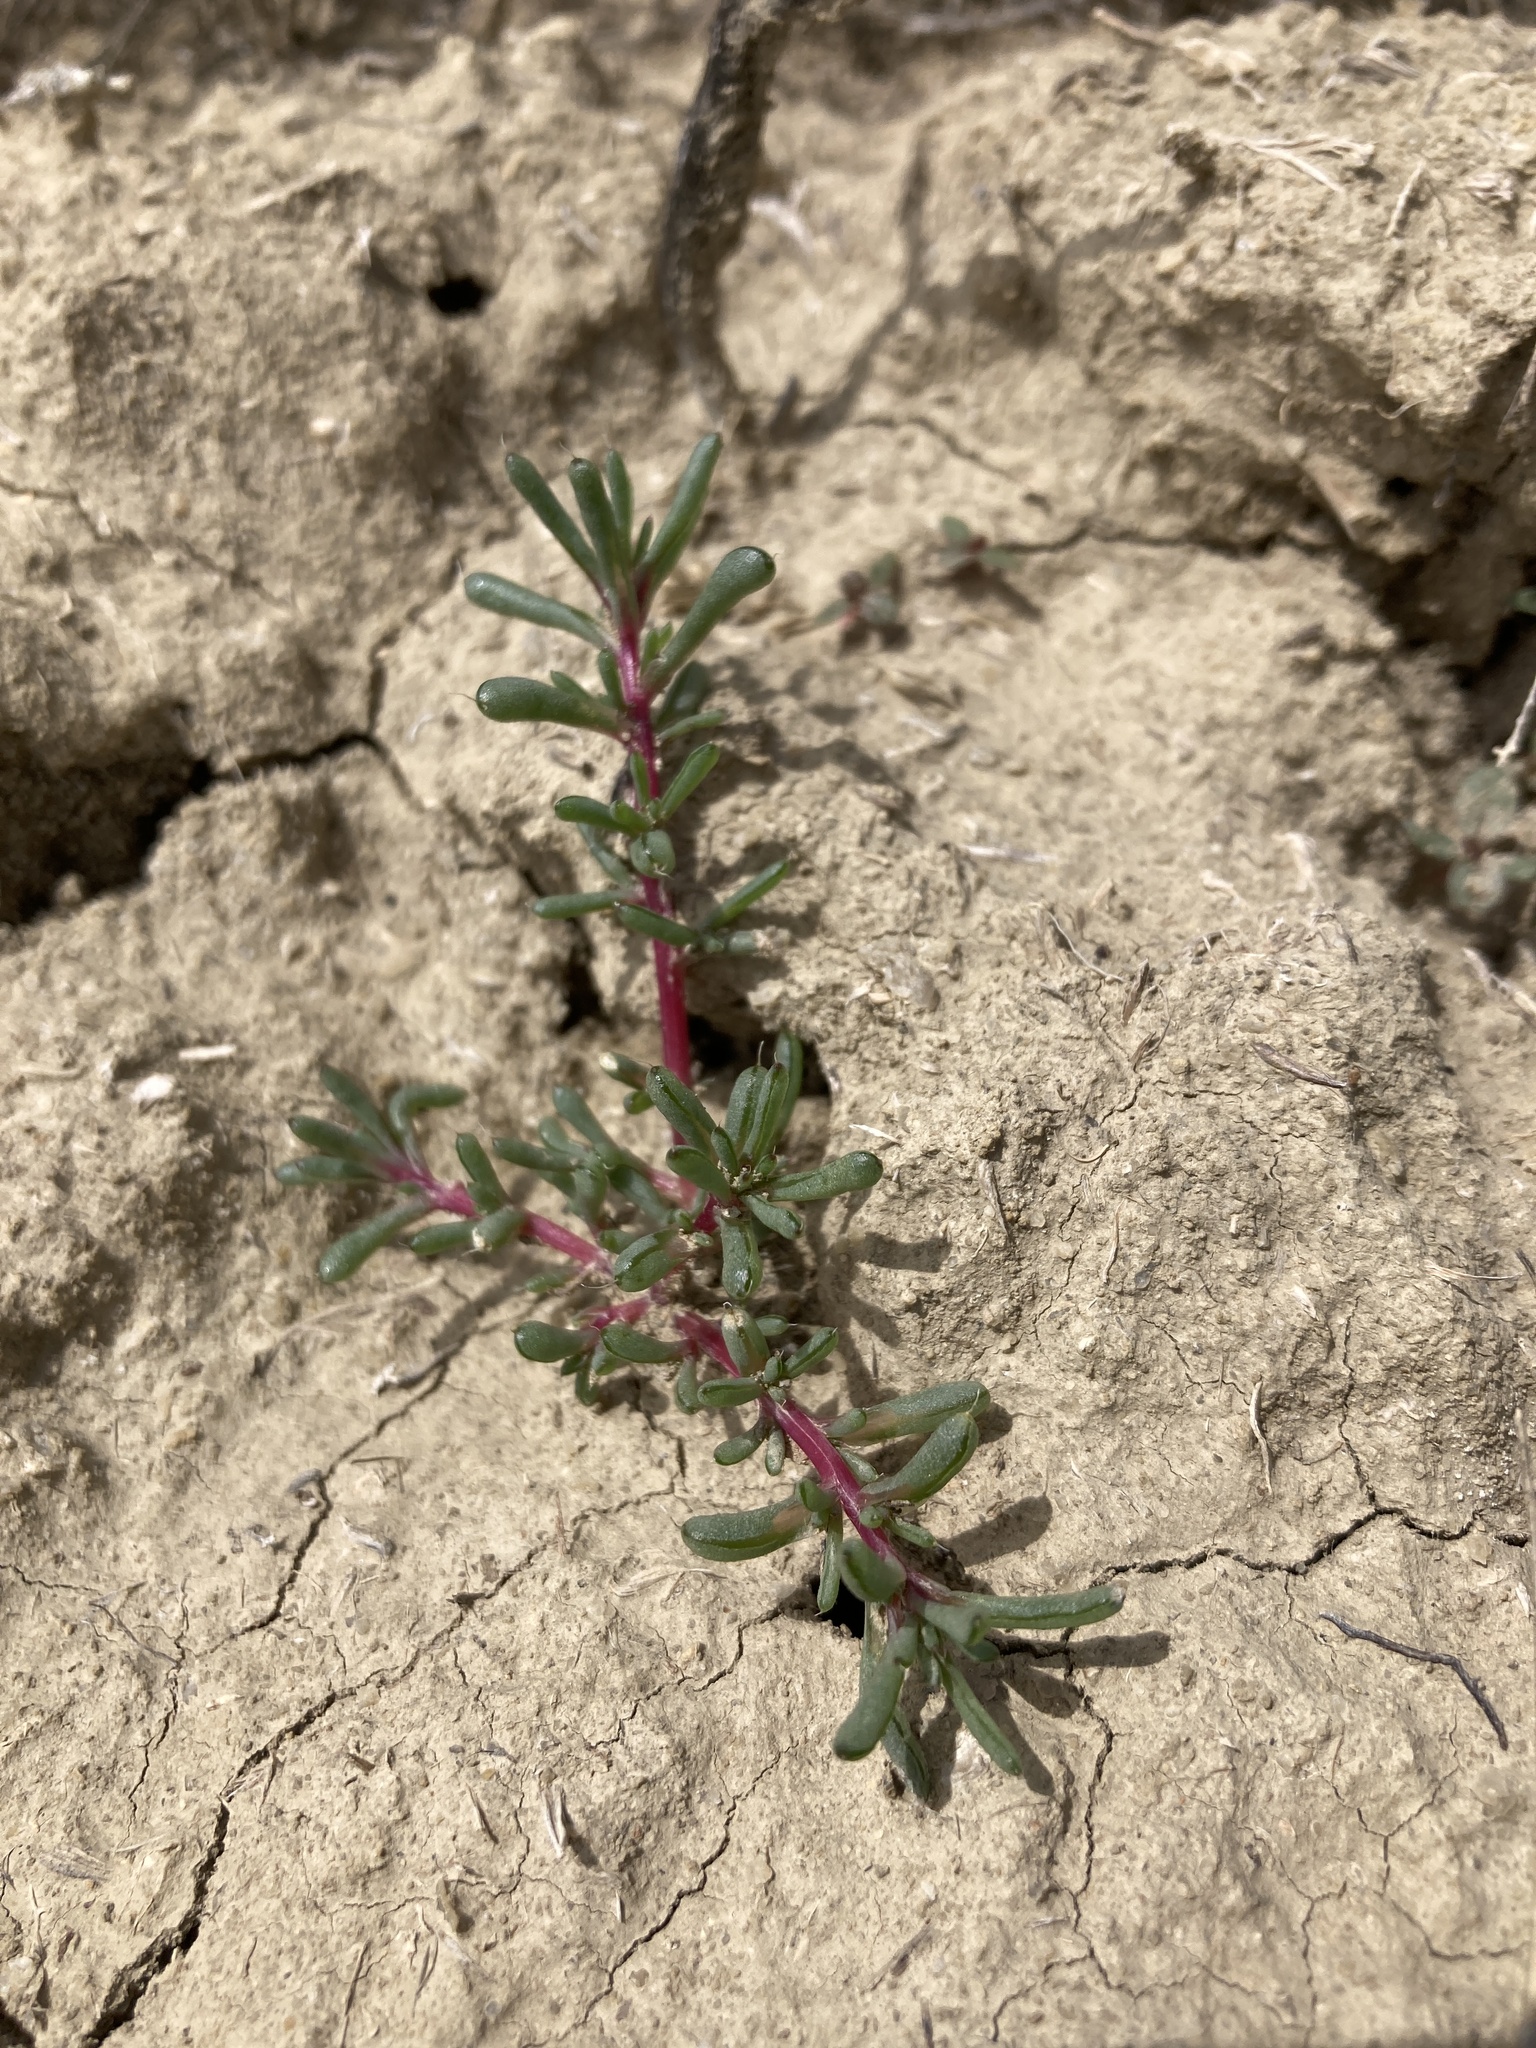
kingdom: Plantae
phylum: Tracheophyta
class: Magnoliopsida
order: Caryophyllales
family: Amaranthaceae
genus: Halogeton
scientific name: Halogeton glomeratus
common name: Saltlover
